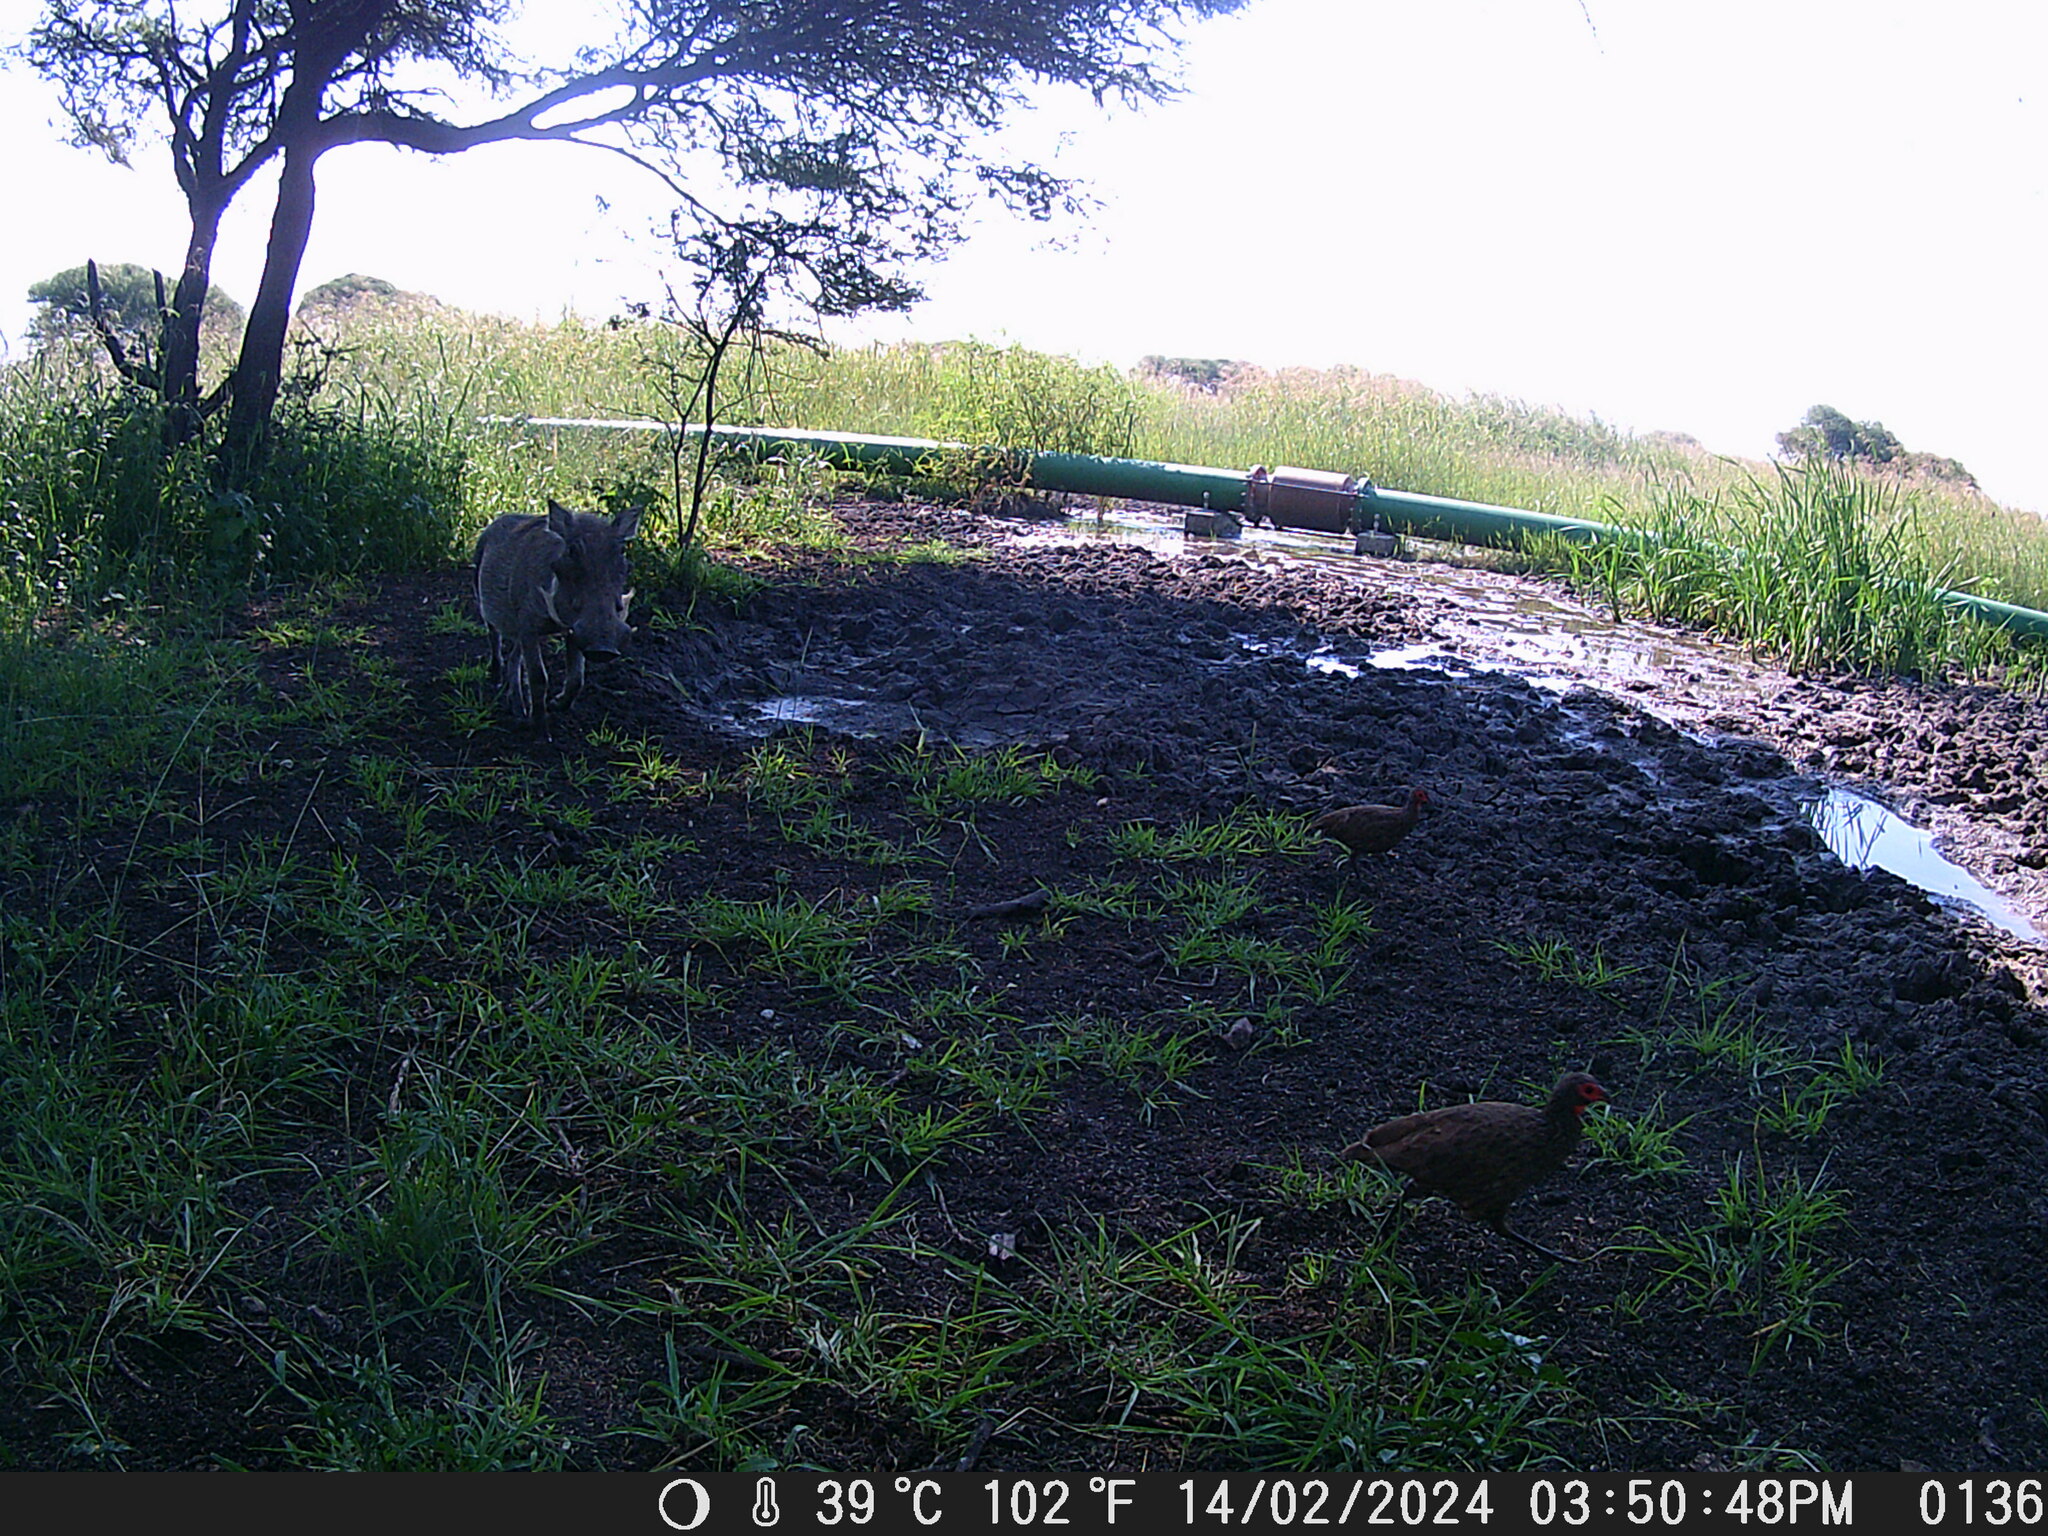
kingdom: Animalia
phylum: Chordata
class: Aves
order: Galliformes
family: Phasianidae
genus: Pternistis
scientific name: Pternistis swainsonii
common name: Swainson's spurfowl
